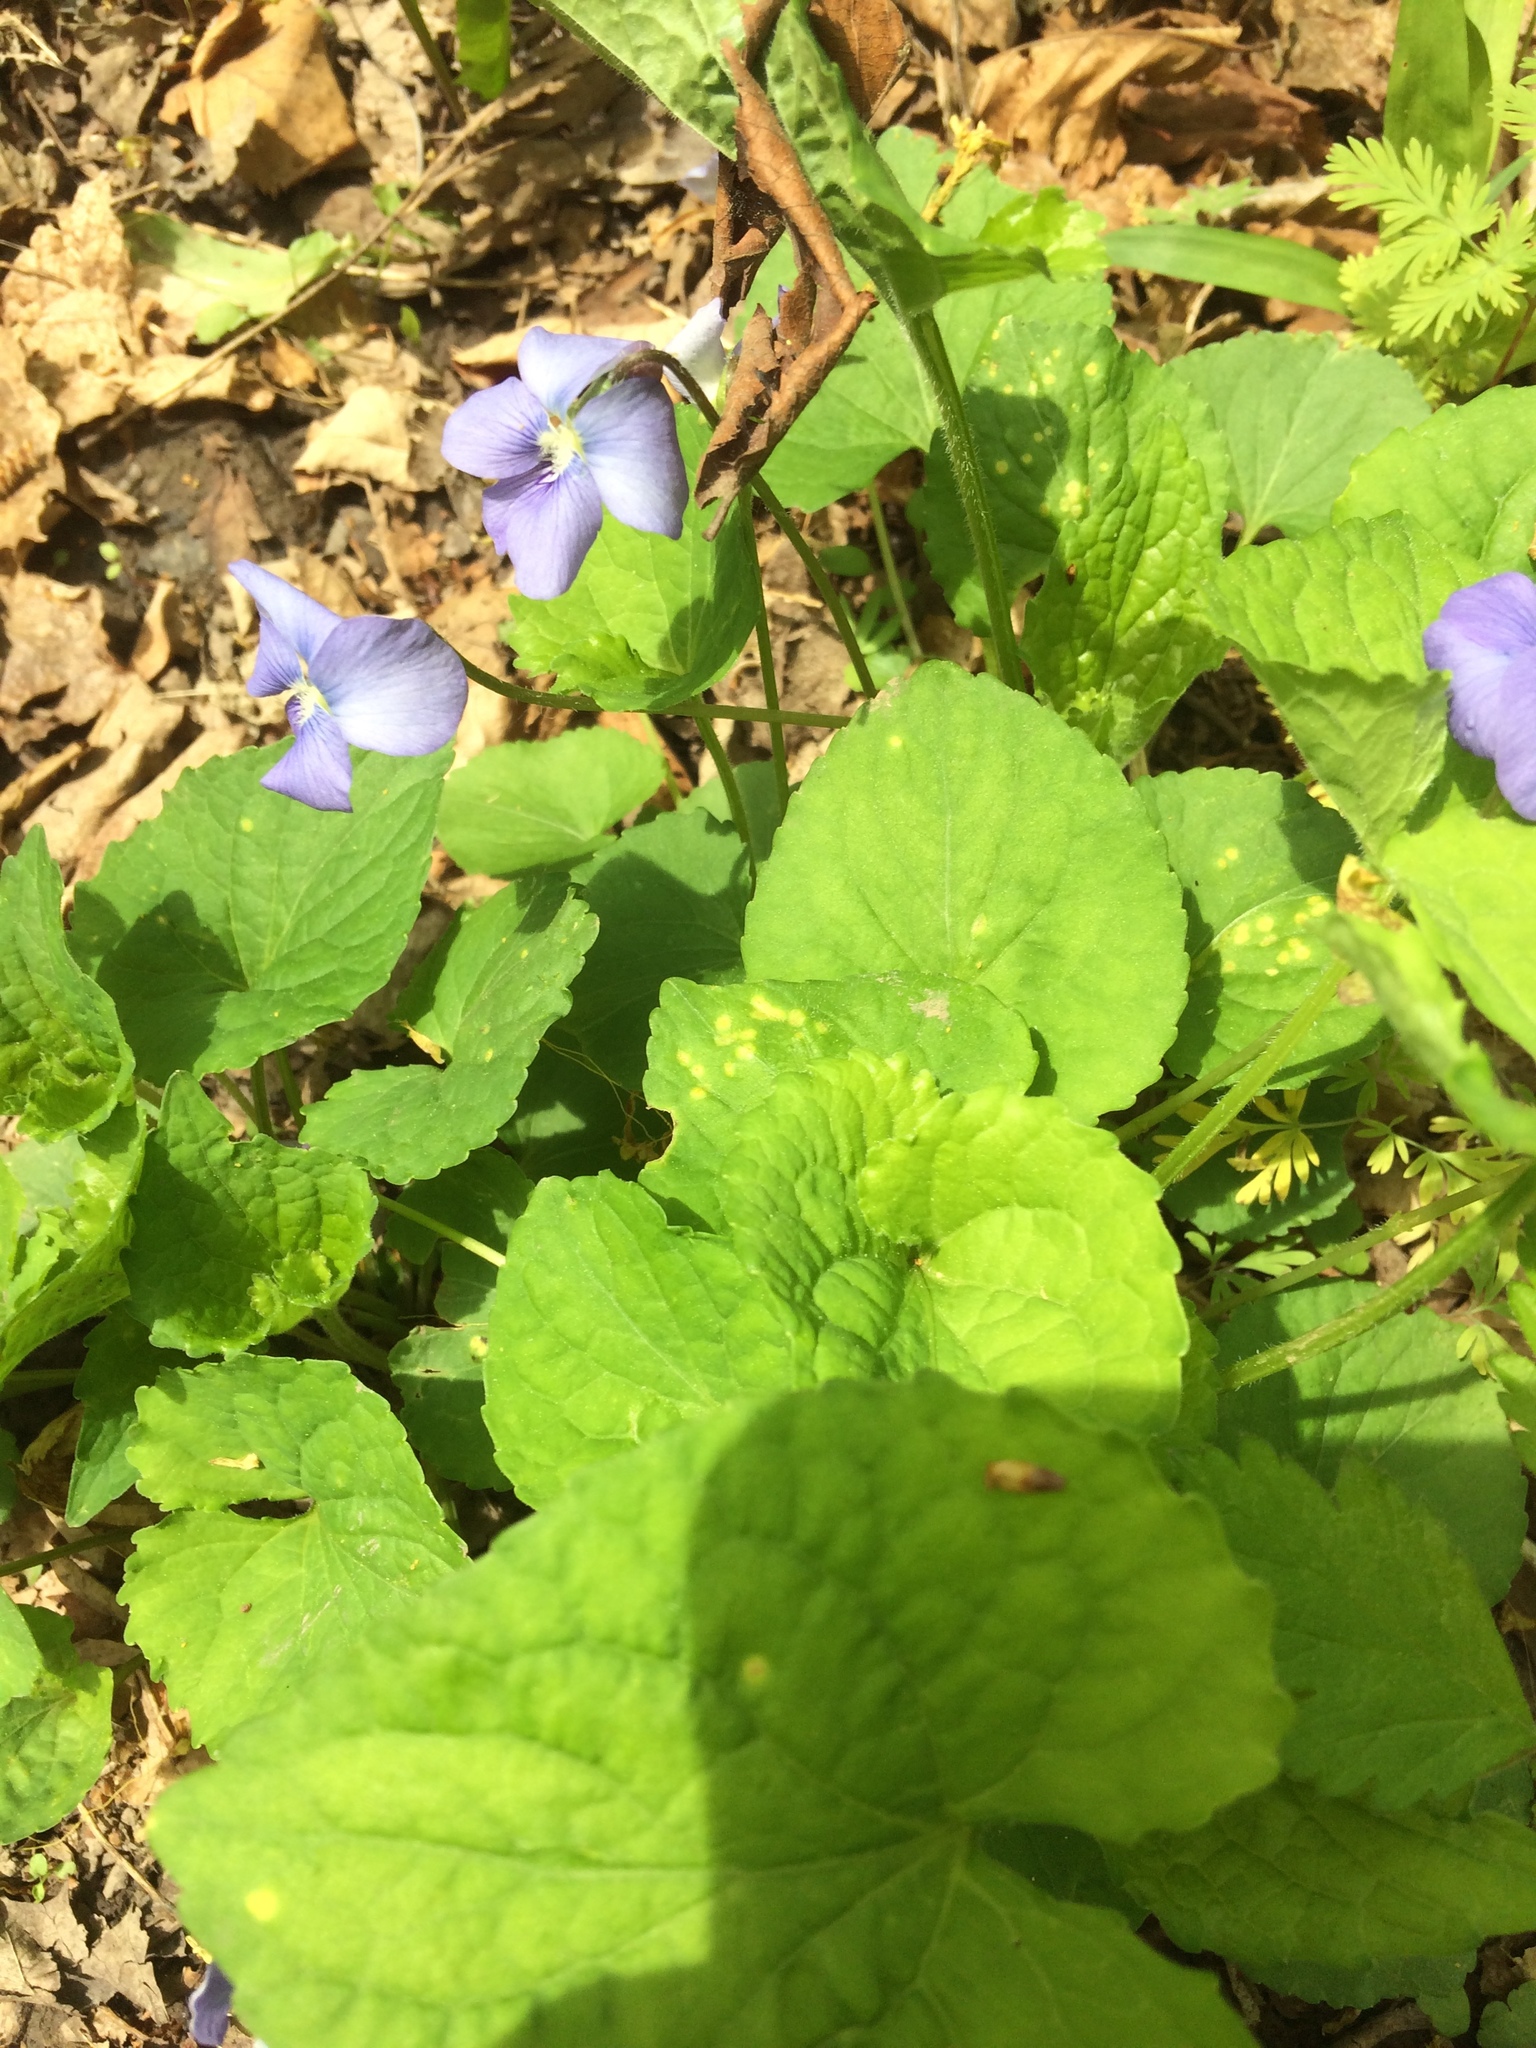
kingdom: Plantae
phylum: Tracheophyta
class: Magnoliopsida
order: Malpighiales
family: Violaceae
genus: Viola
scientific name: Viola sororia
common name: Dooryard violet
